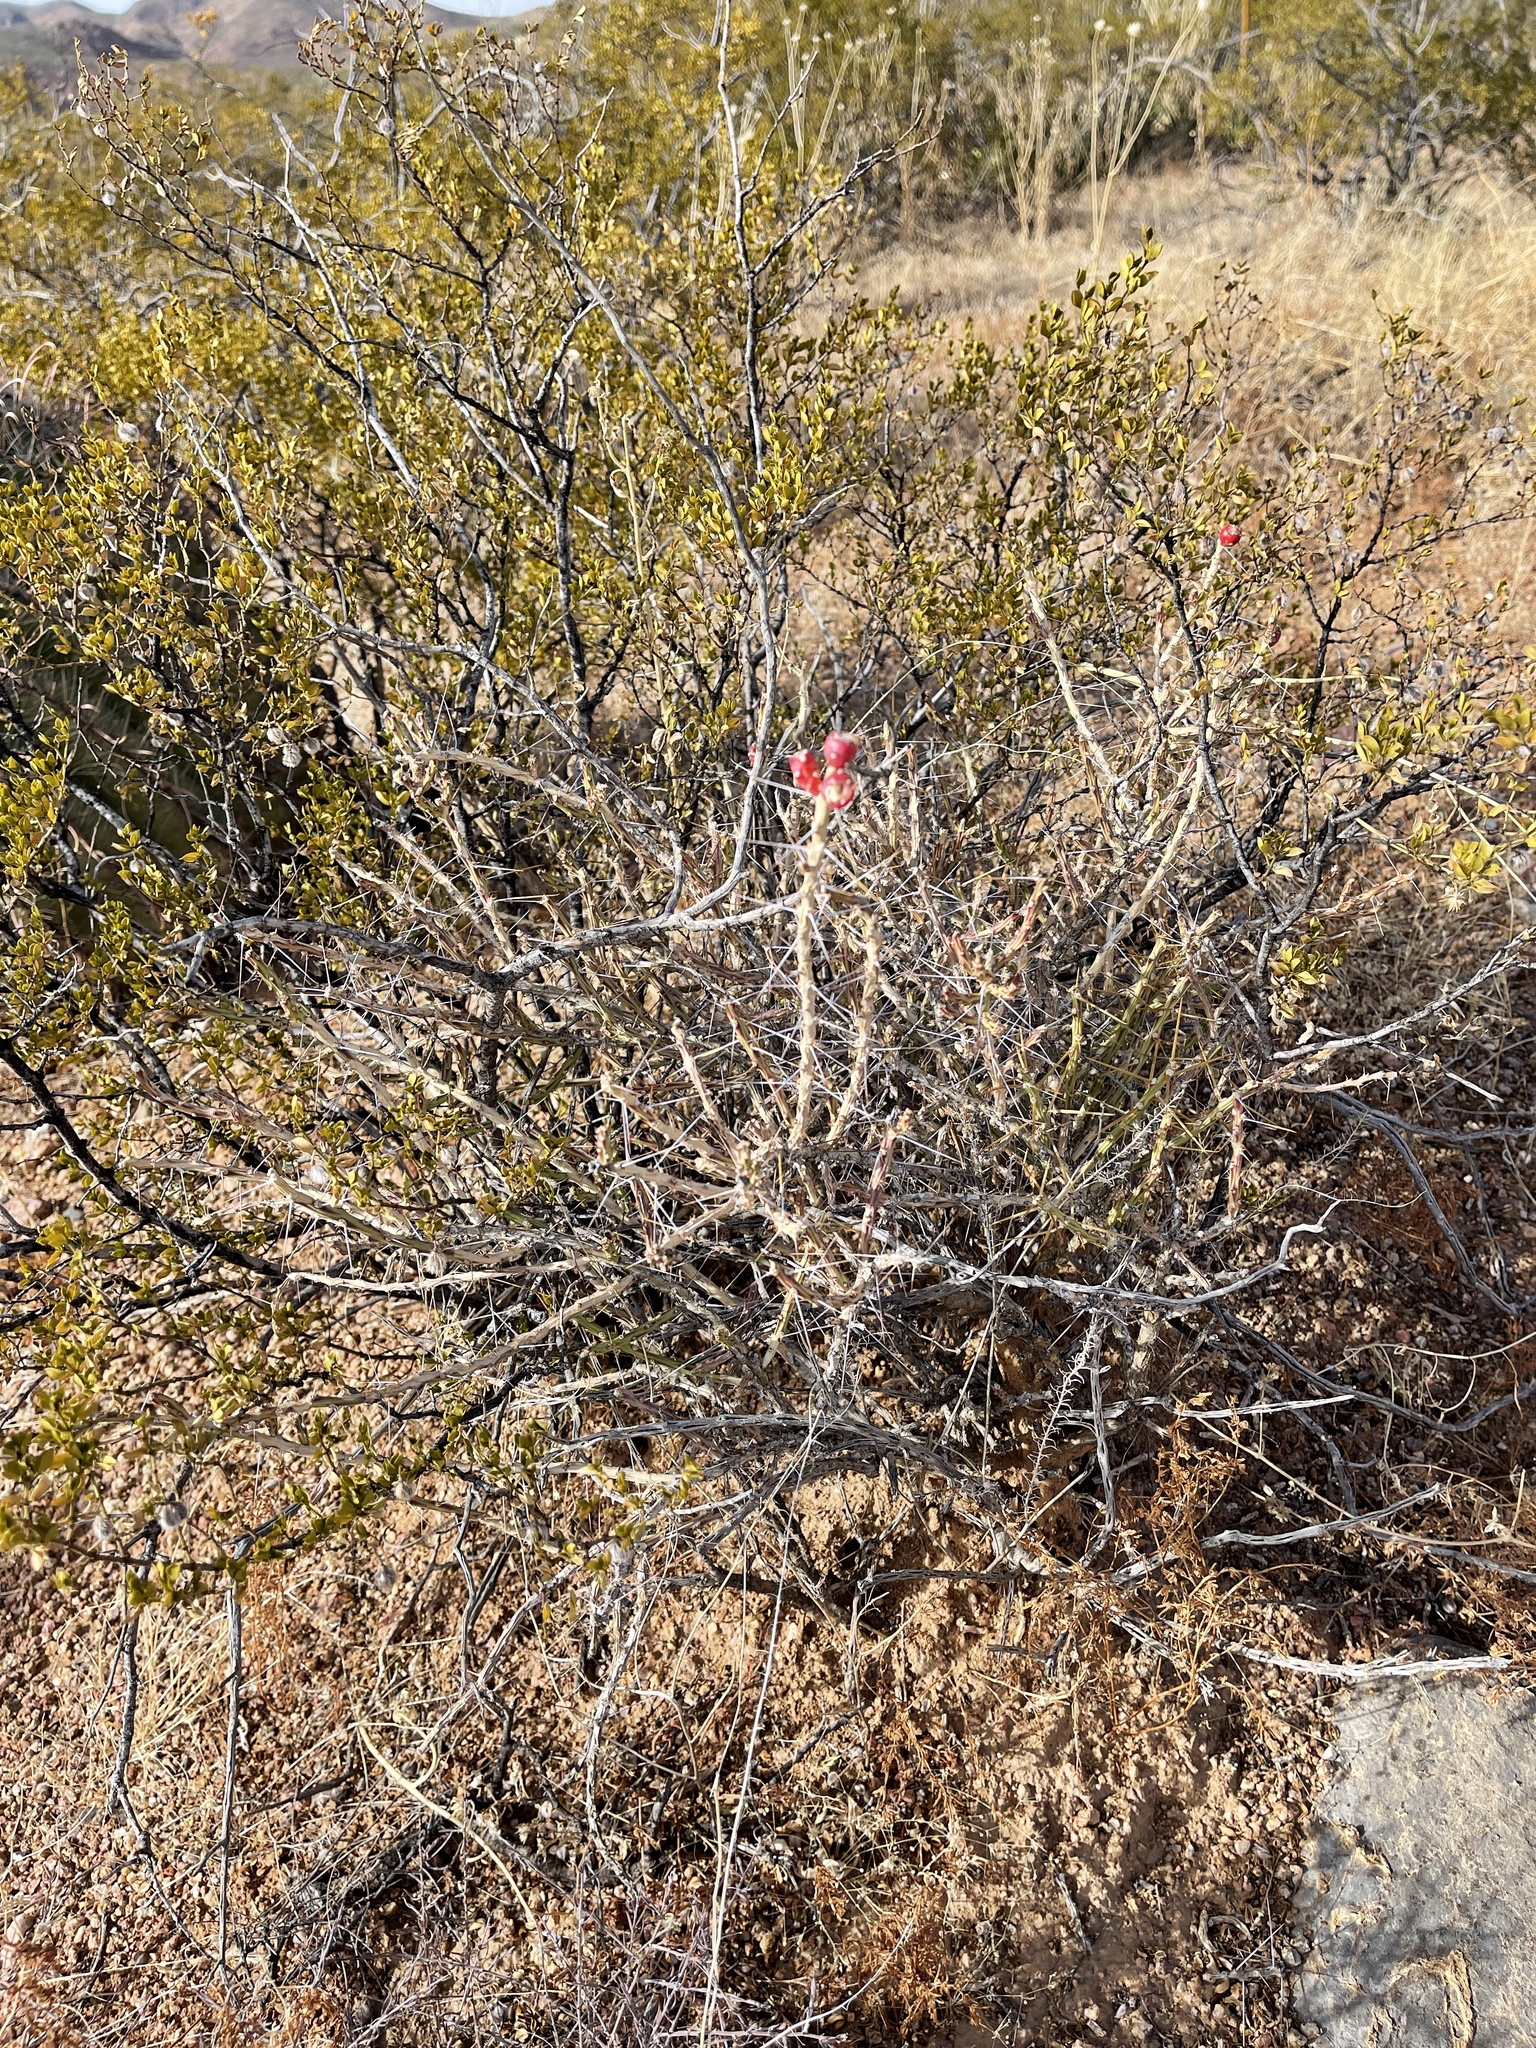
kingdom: Plantae
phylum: Tracheophyta
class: Magnoliopsida
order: Caryophyllales
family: Cactaceae
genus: Cylindropuntia
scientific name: Cylindropuntia leptocaulis
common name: Christmas cactus
